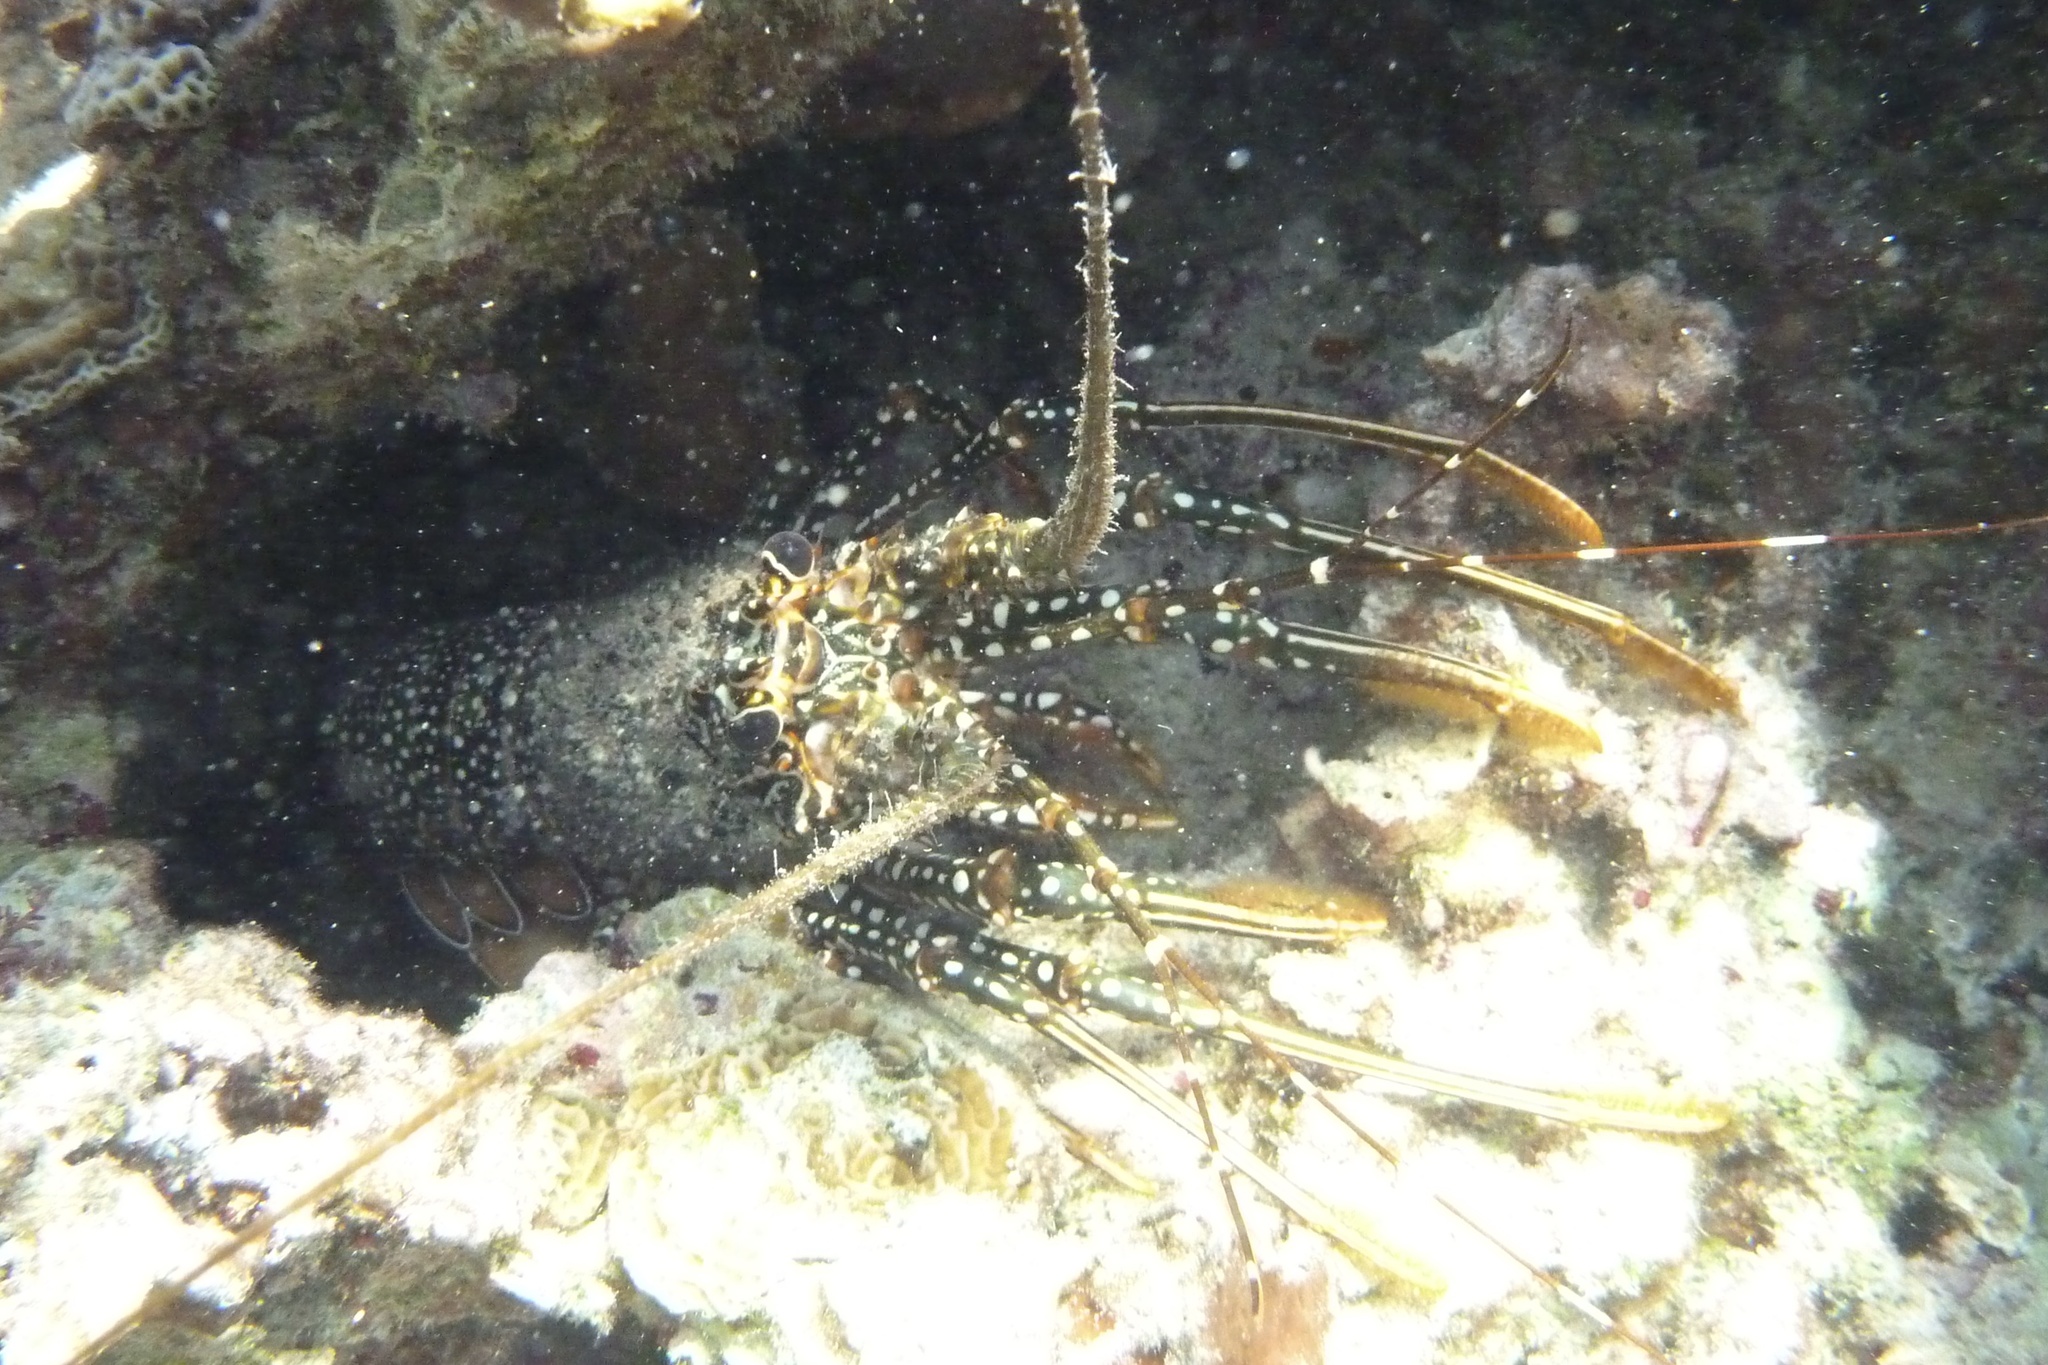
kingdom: Animalia
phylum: Arthropoda
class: Malacostraca
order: Decapoda
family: Palinuridae
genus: Panulirus
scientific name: Panulirus guttatus
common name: Spotted spiny lobster
